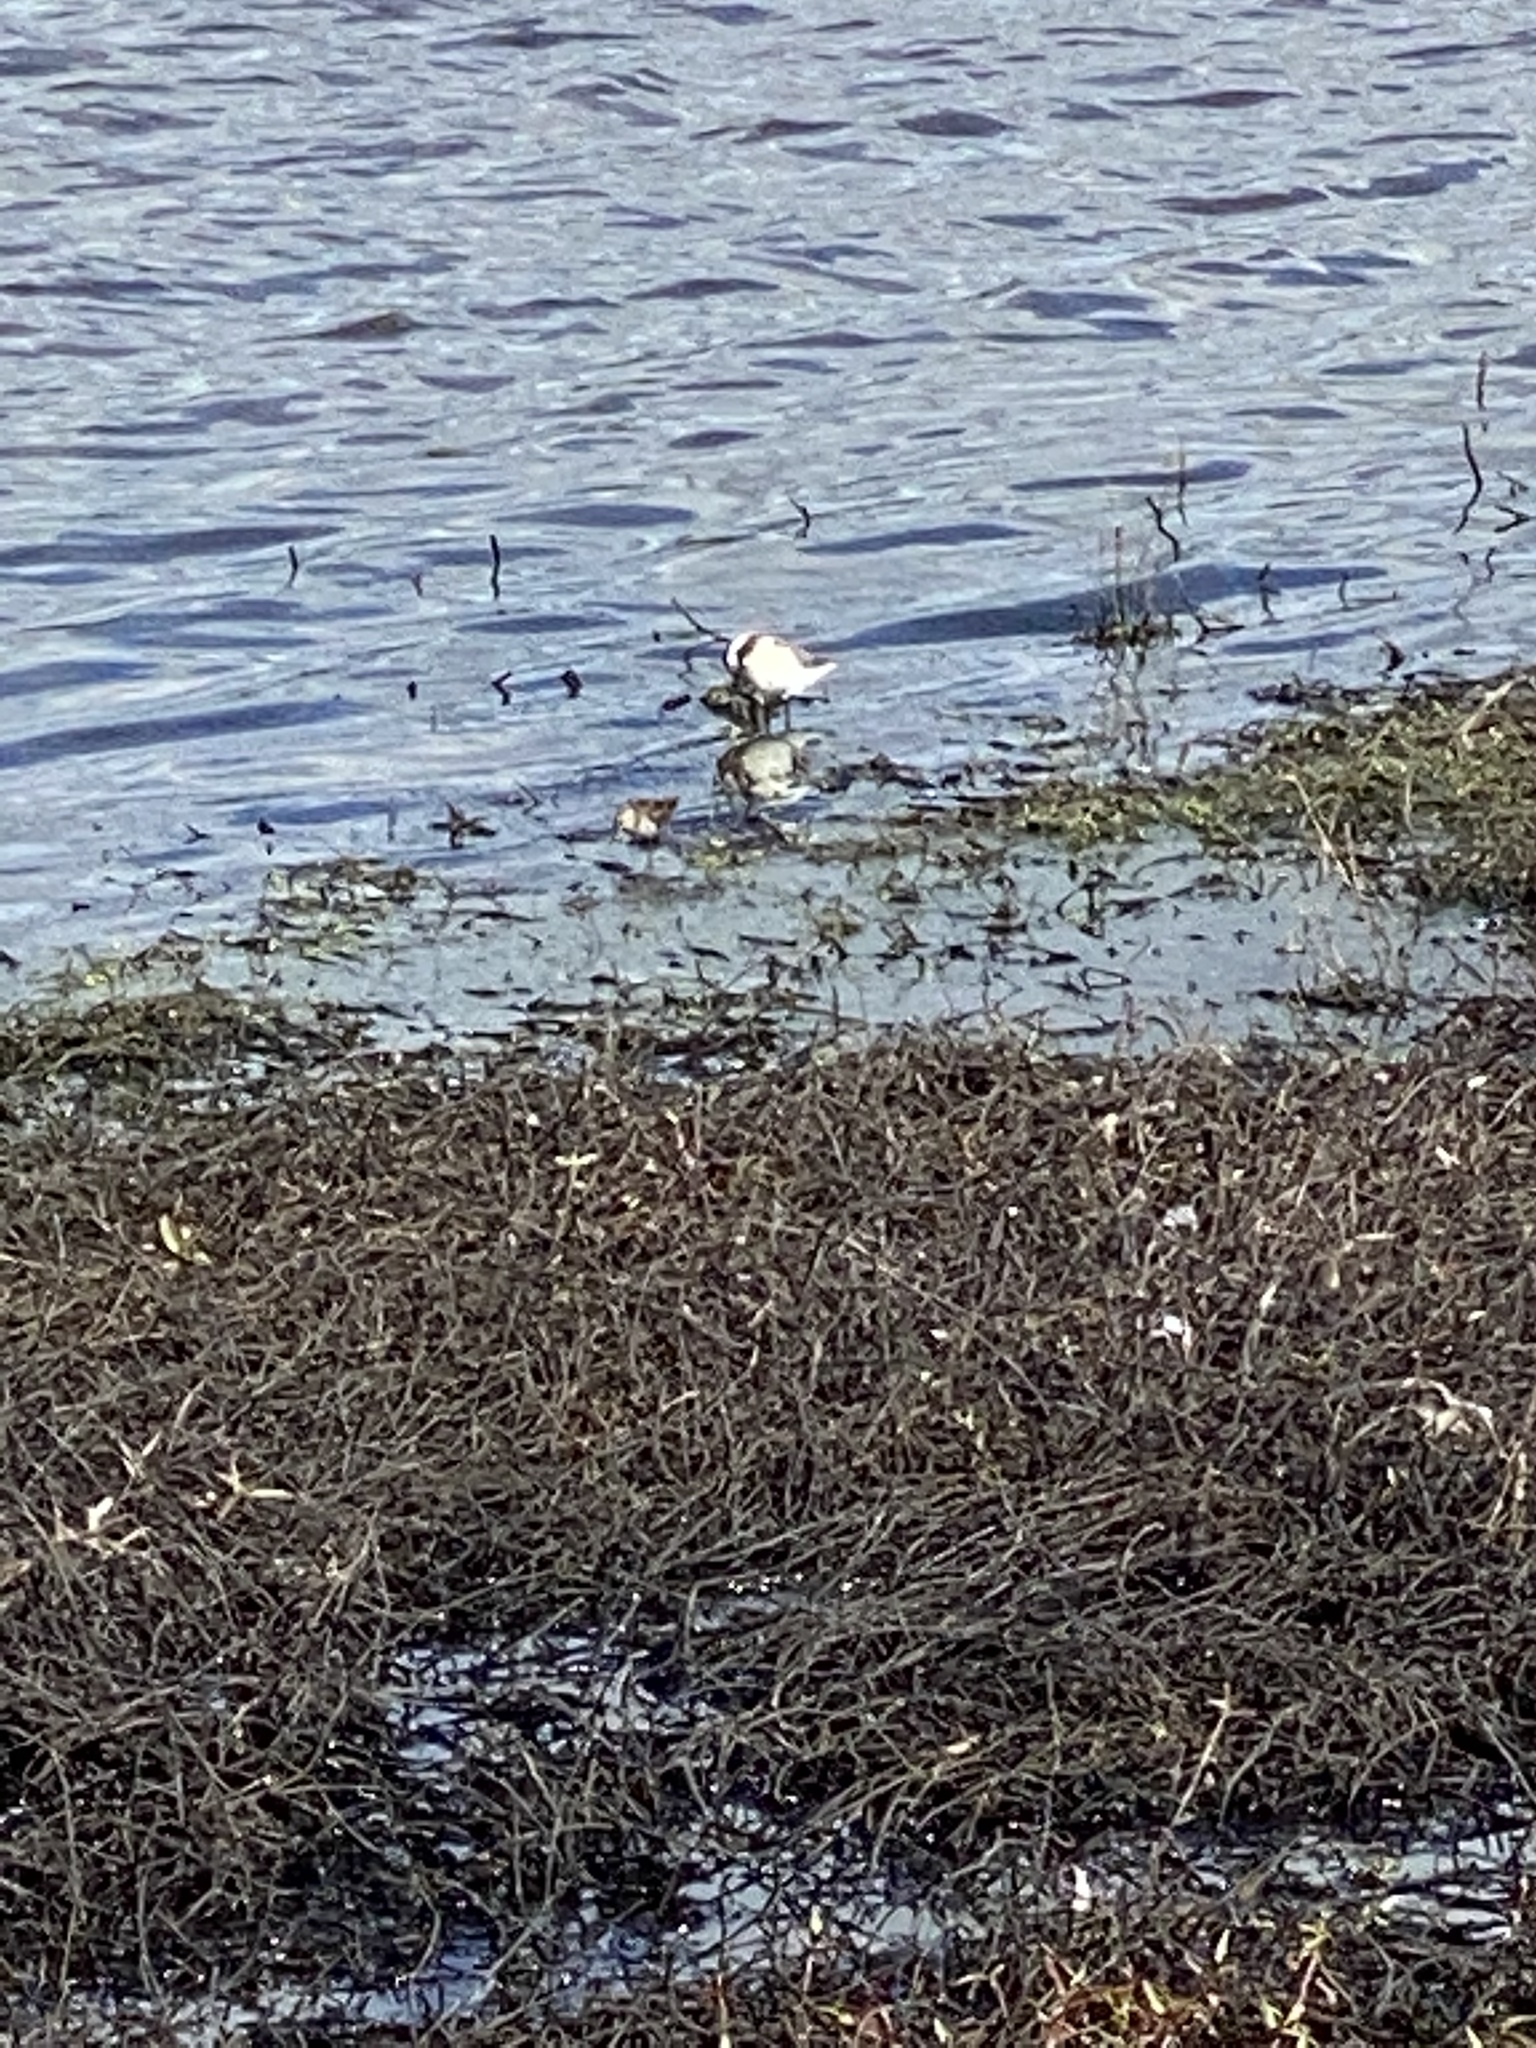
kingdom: Animalia
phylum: Chordata
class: Aves
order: Charadriiformes
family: Scolopacidae
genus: Phalaropus
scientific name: Phalaropus tricolor
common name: Wilson's phalarope
